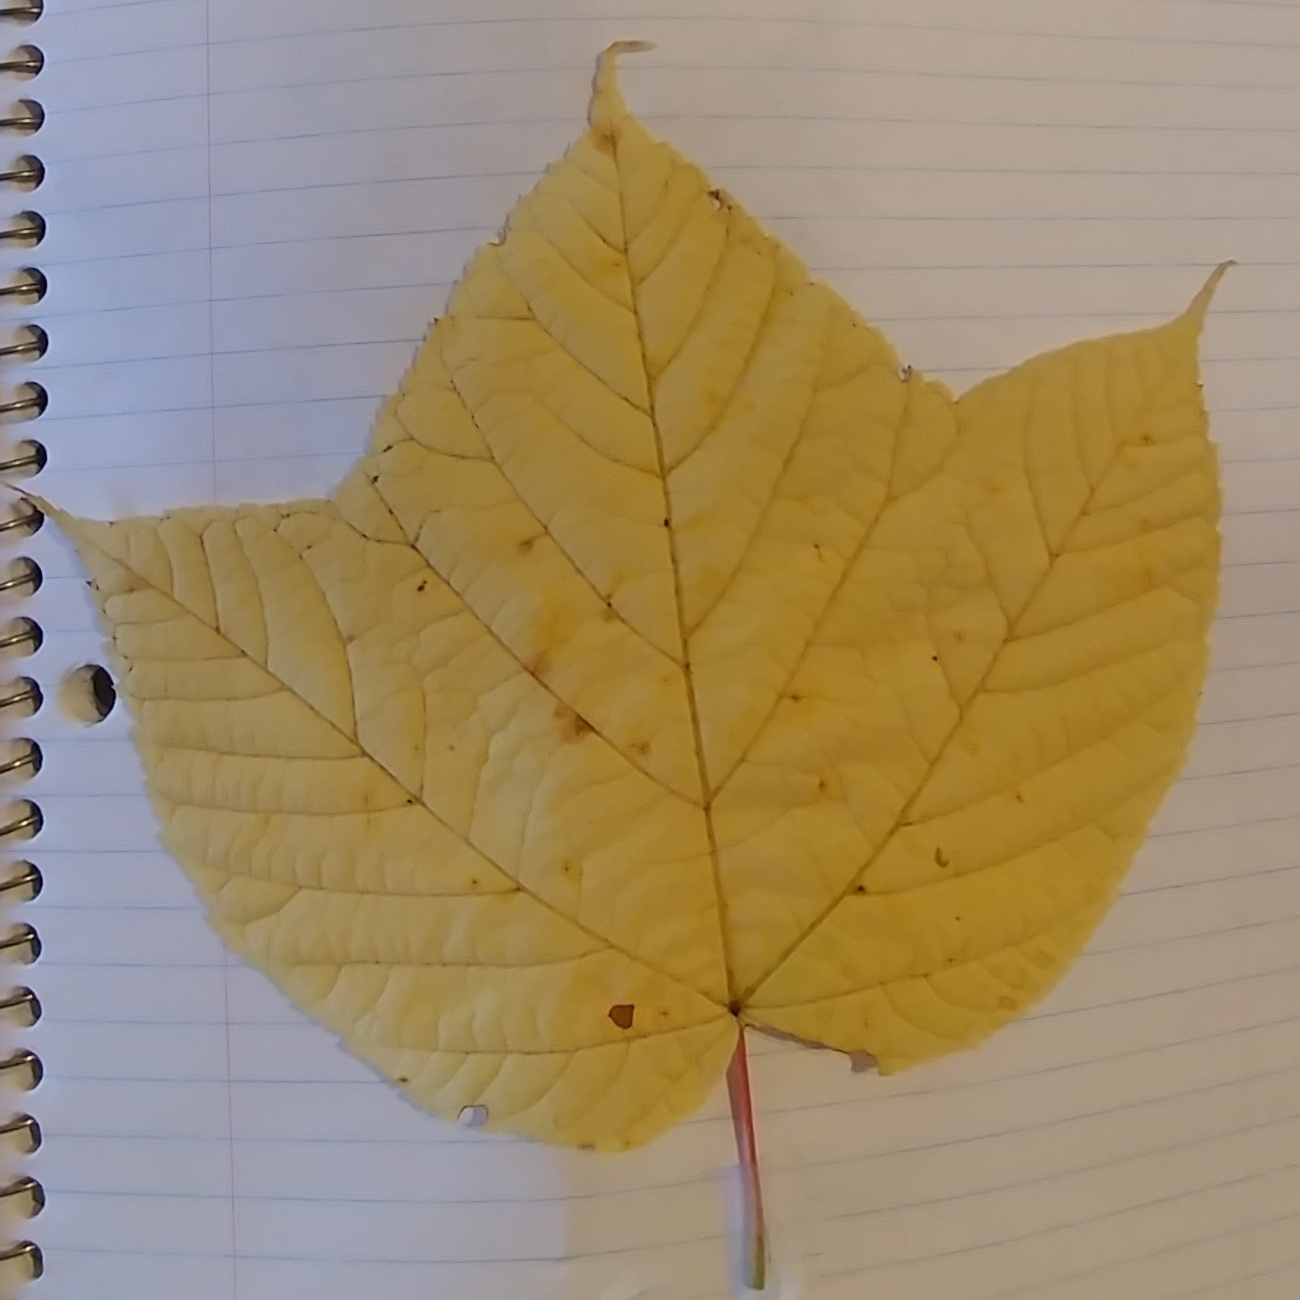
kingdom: Plantae
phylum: Tracheophyta
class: Magnoliopsida
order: Sapindales
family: Sapindaceae
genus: Acer
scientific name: Acer pensylvanicum
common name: Moosewood
